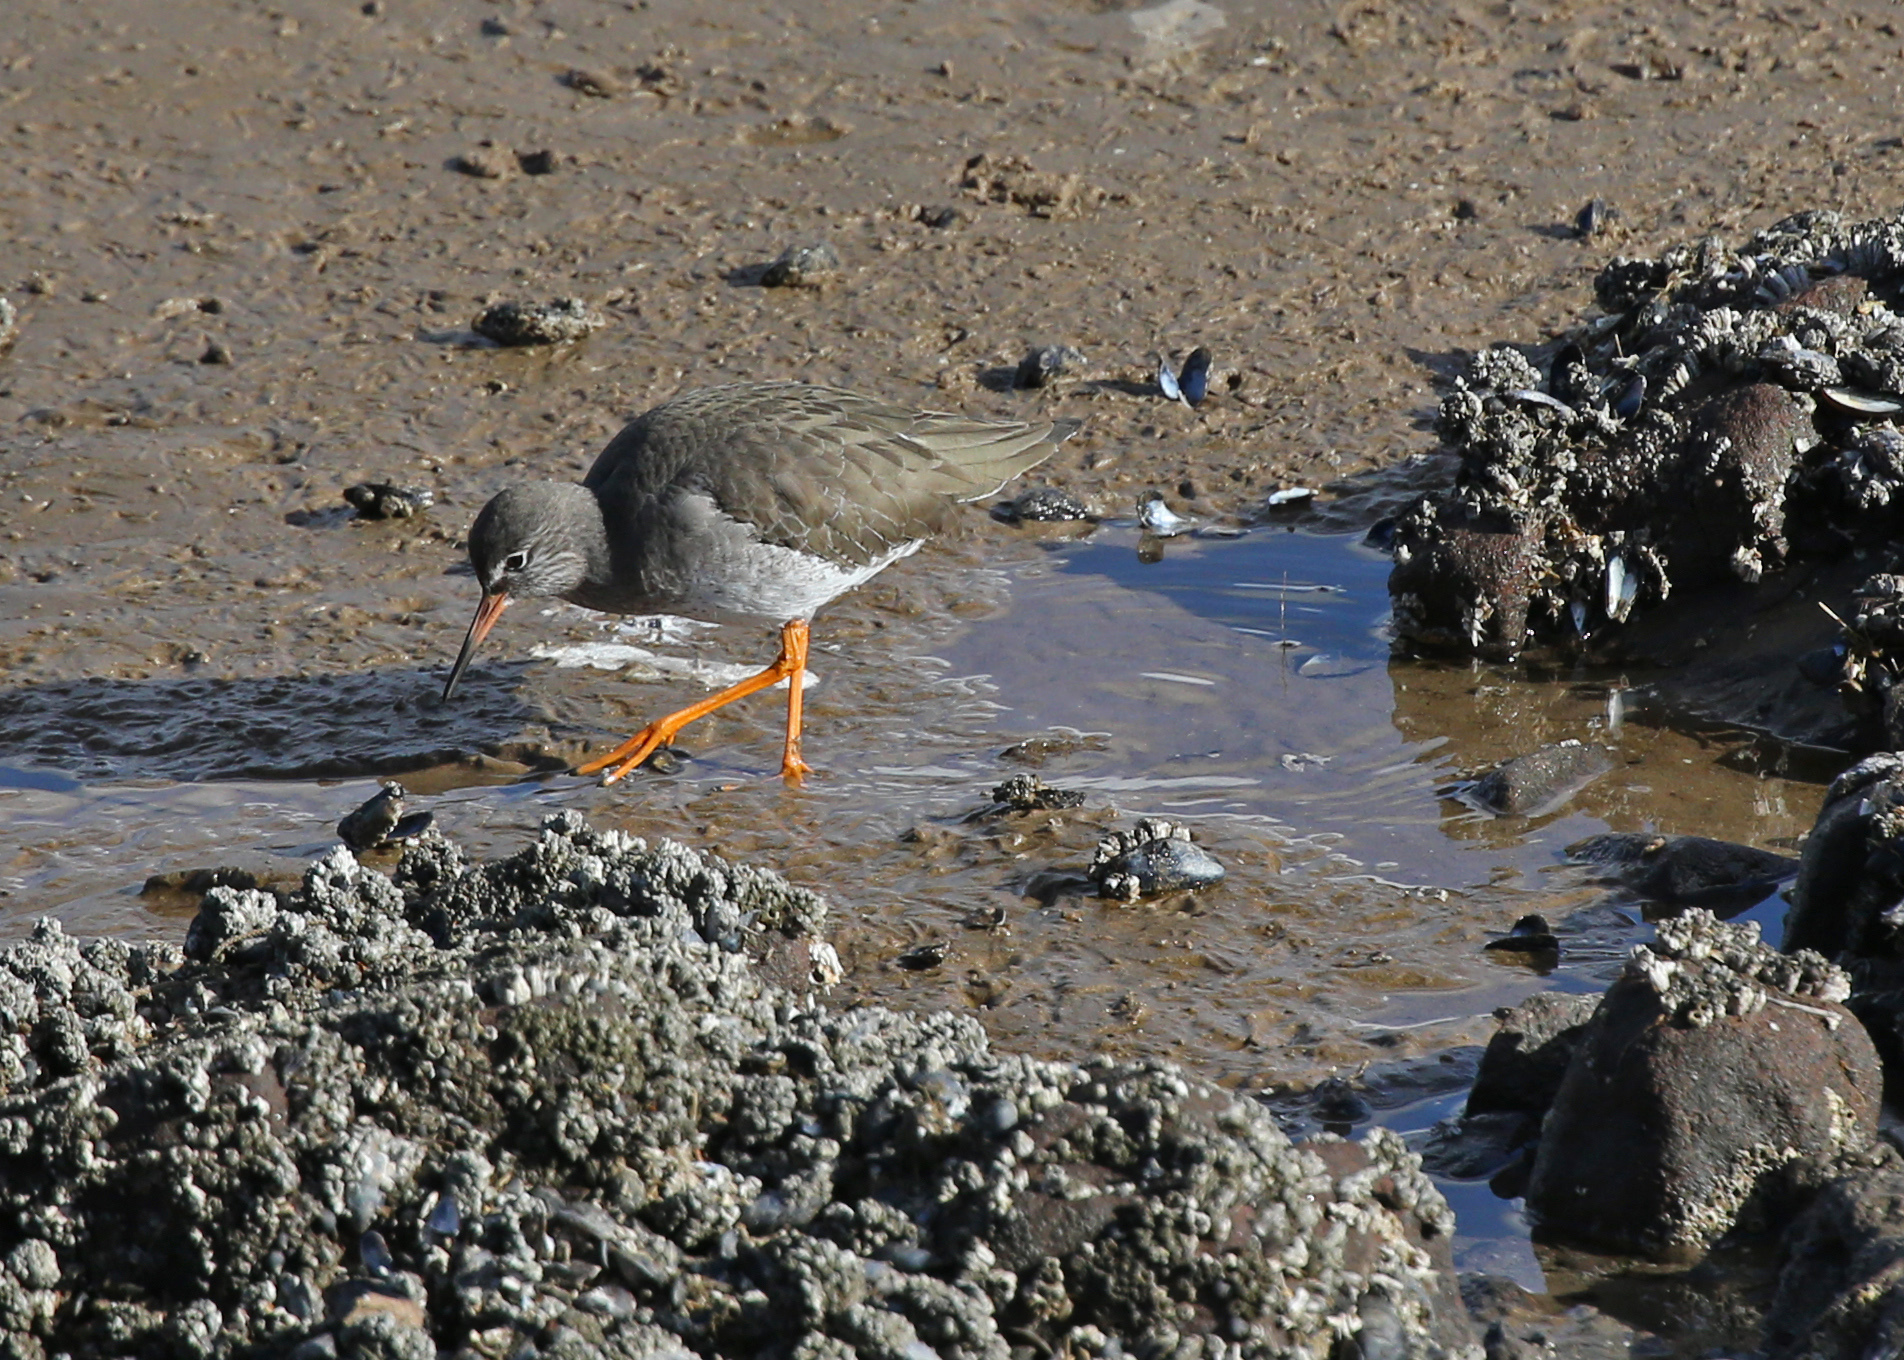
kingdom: Animalia
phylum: Chordata
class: Aves
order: Charadriiformes
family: Scolopacidae
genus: Tringa
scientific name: Tringa totanus
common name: Common redshank
